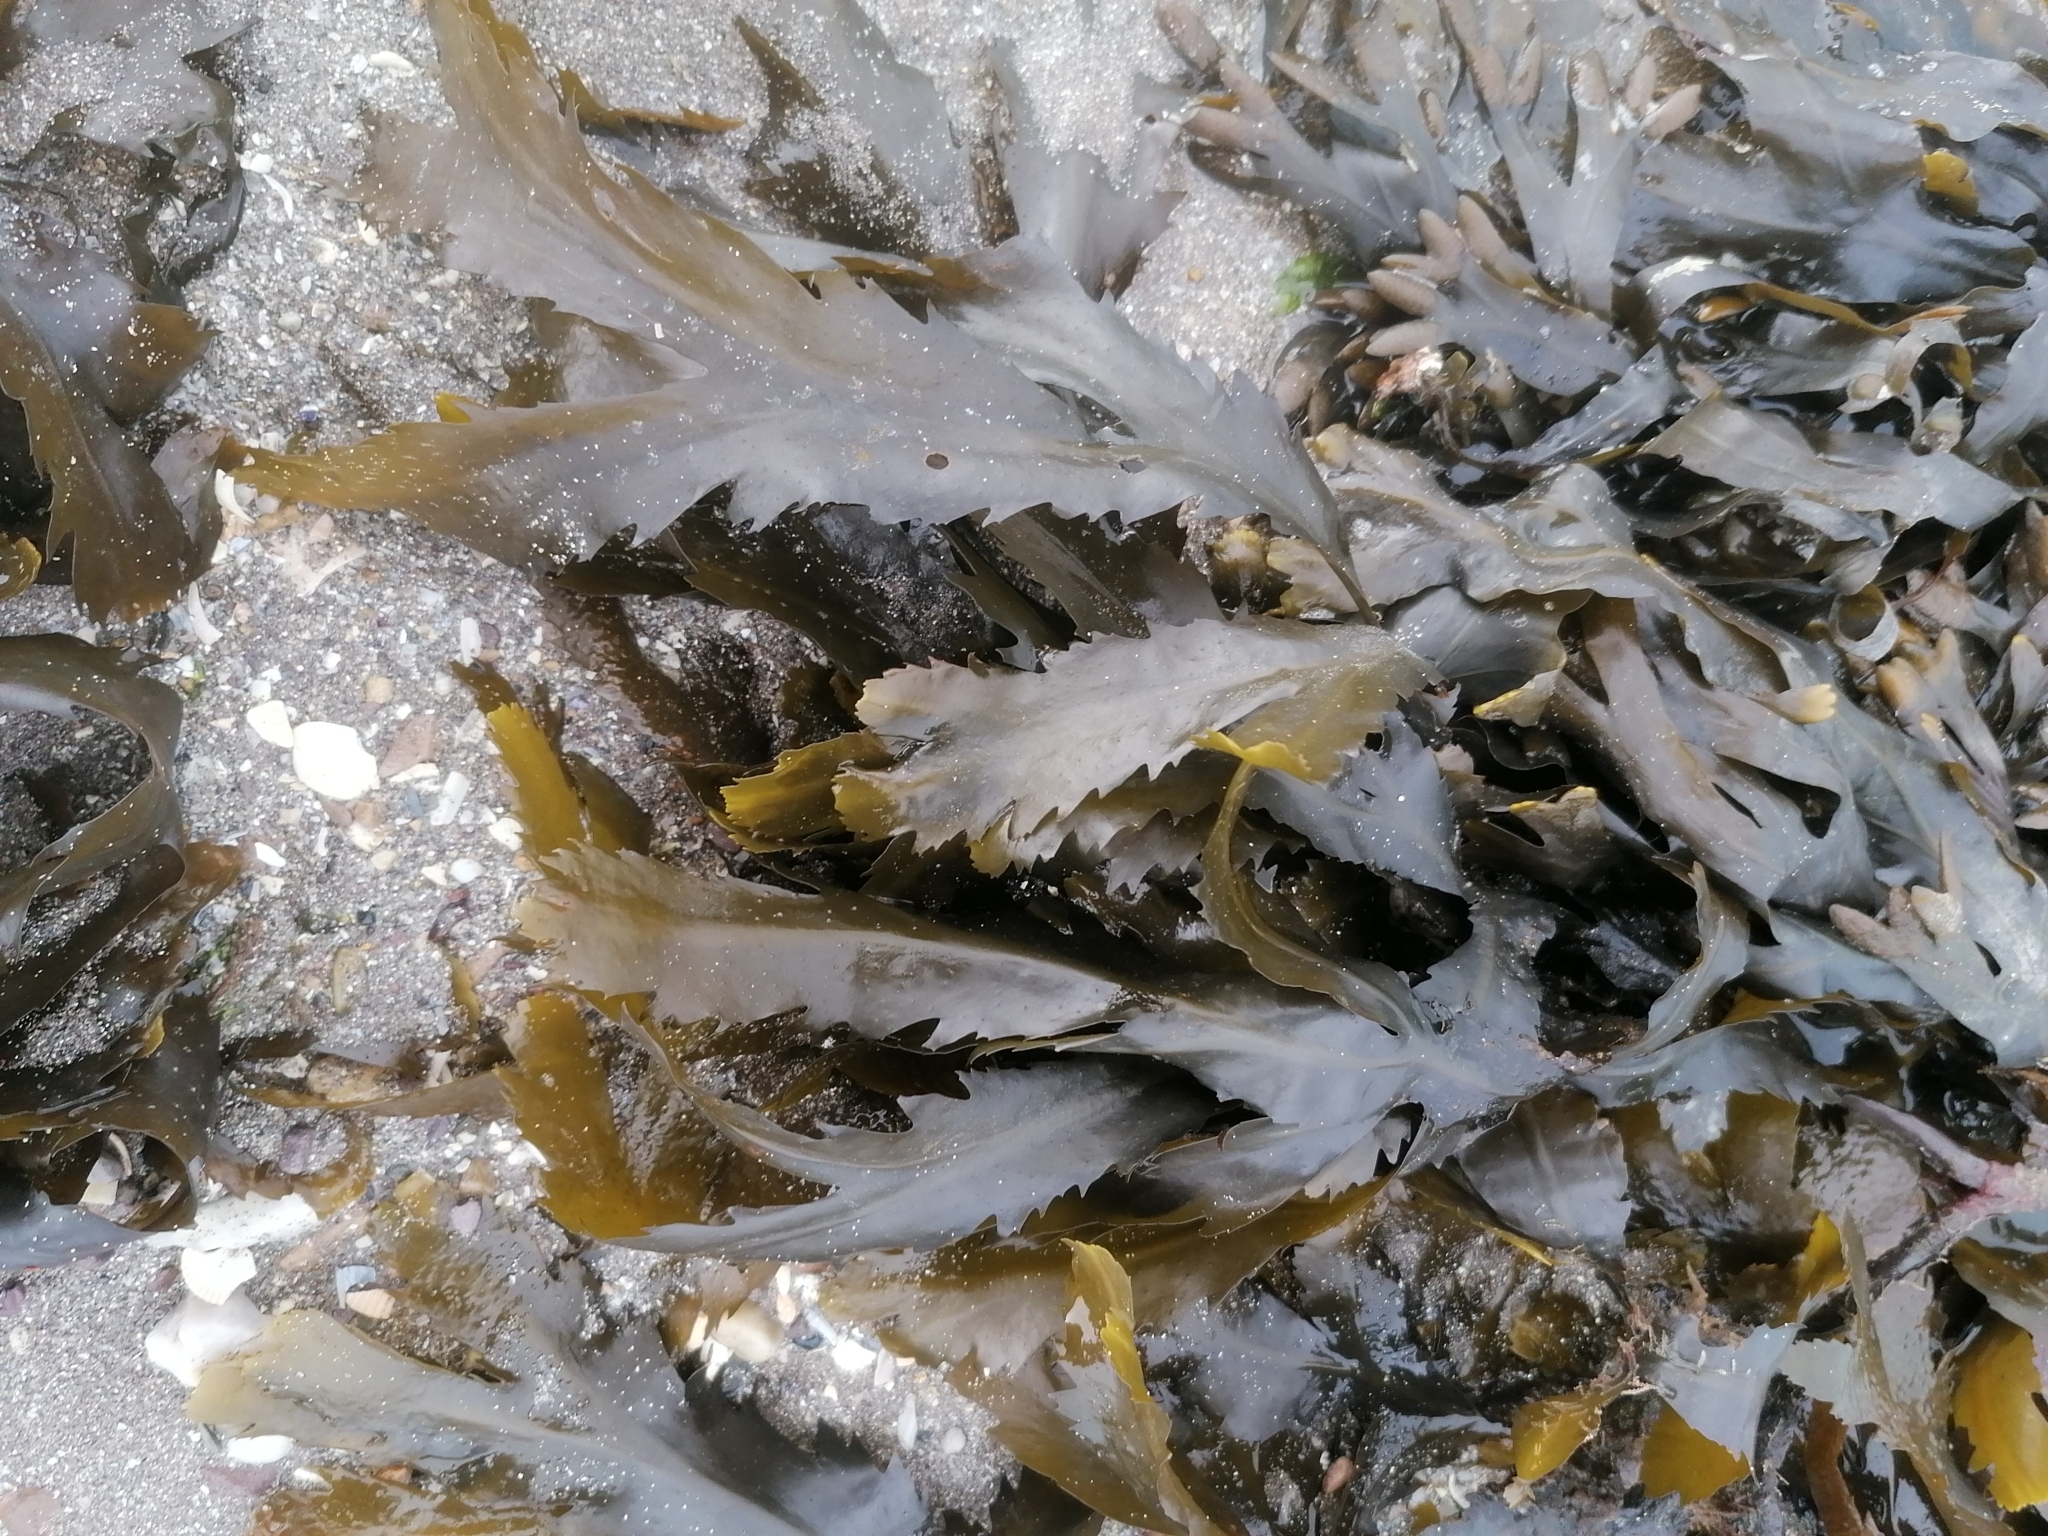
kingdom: Chromista
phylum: Ochrophyta
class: Phaeophyceae
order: Fucales
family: Fucaceae
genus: Fucus
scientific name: Fucus serratus
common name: Toothed wrack
